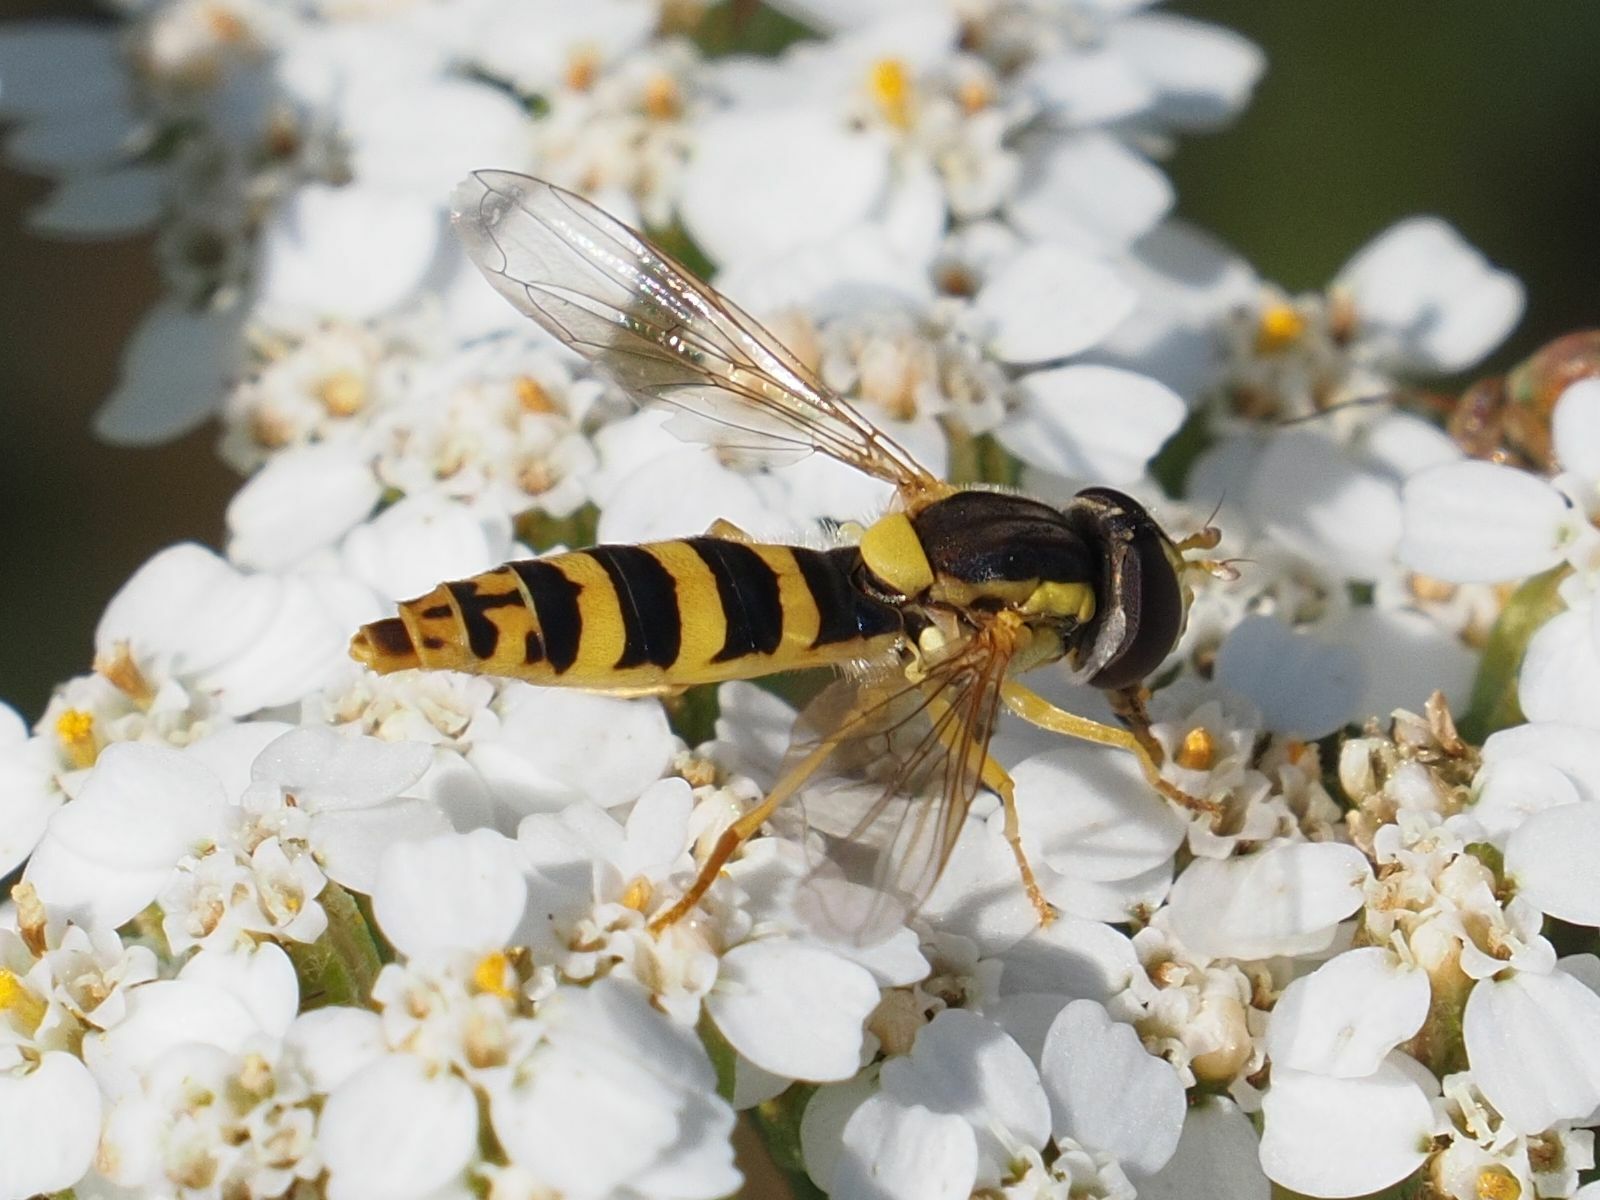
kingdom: Animalia
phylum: Arthropoda
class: Insecta
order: Diptera
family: Syrphidae
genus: Sphaerophoria
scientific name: Sphaerophoria
